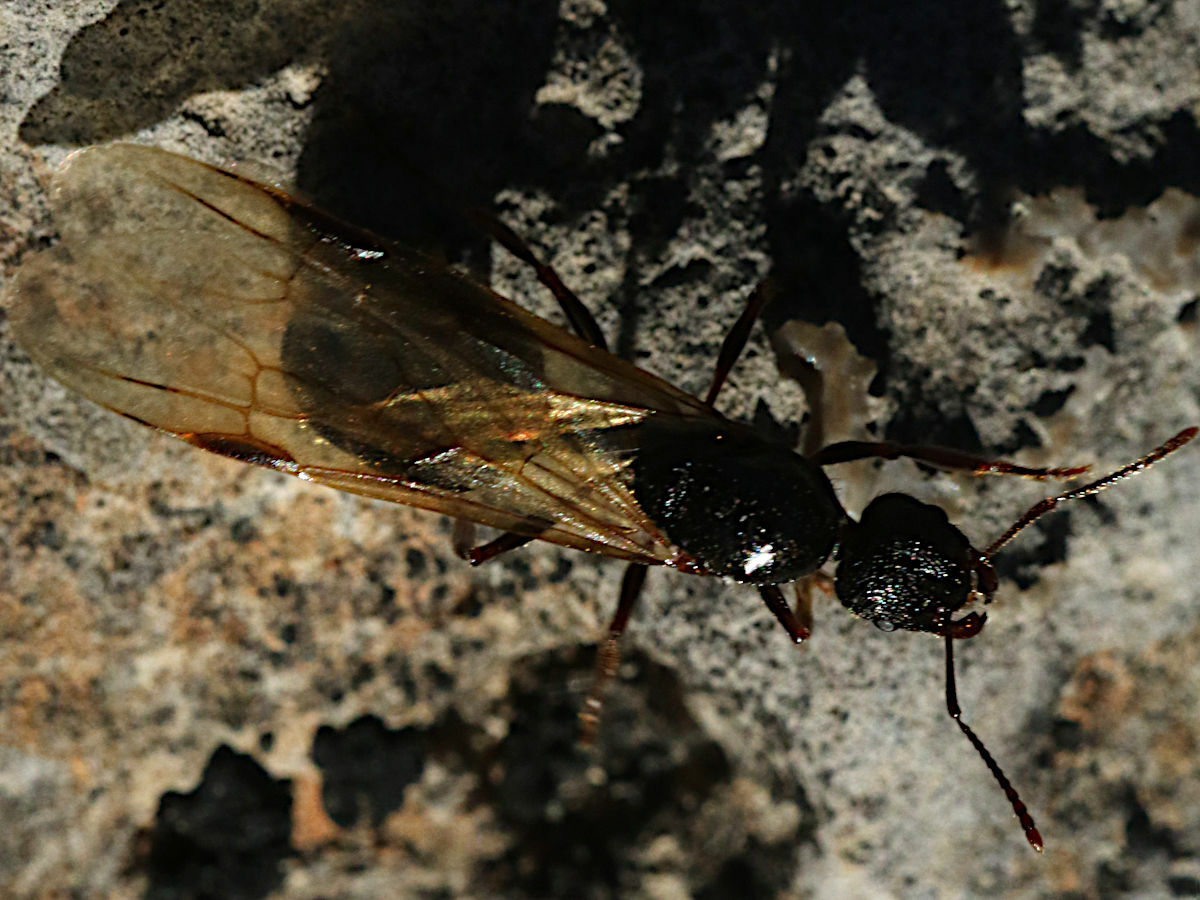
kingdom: Animalia
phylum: Arthropoda
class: Insecta
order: Hymenoptera
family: Formicidae
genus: Aphaenogaster
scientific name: Aphaenogaster
